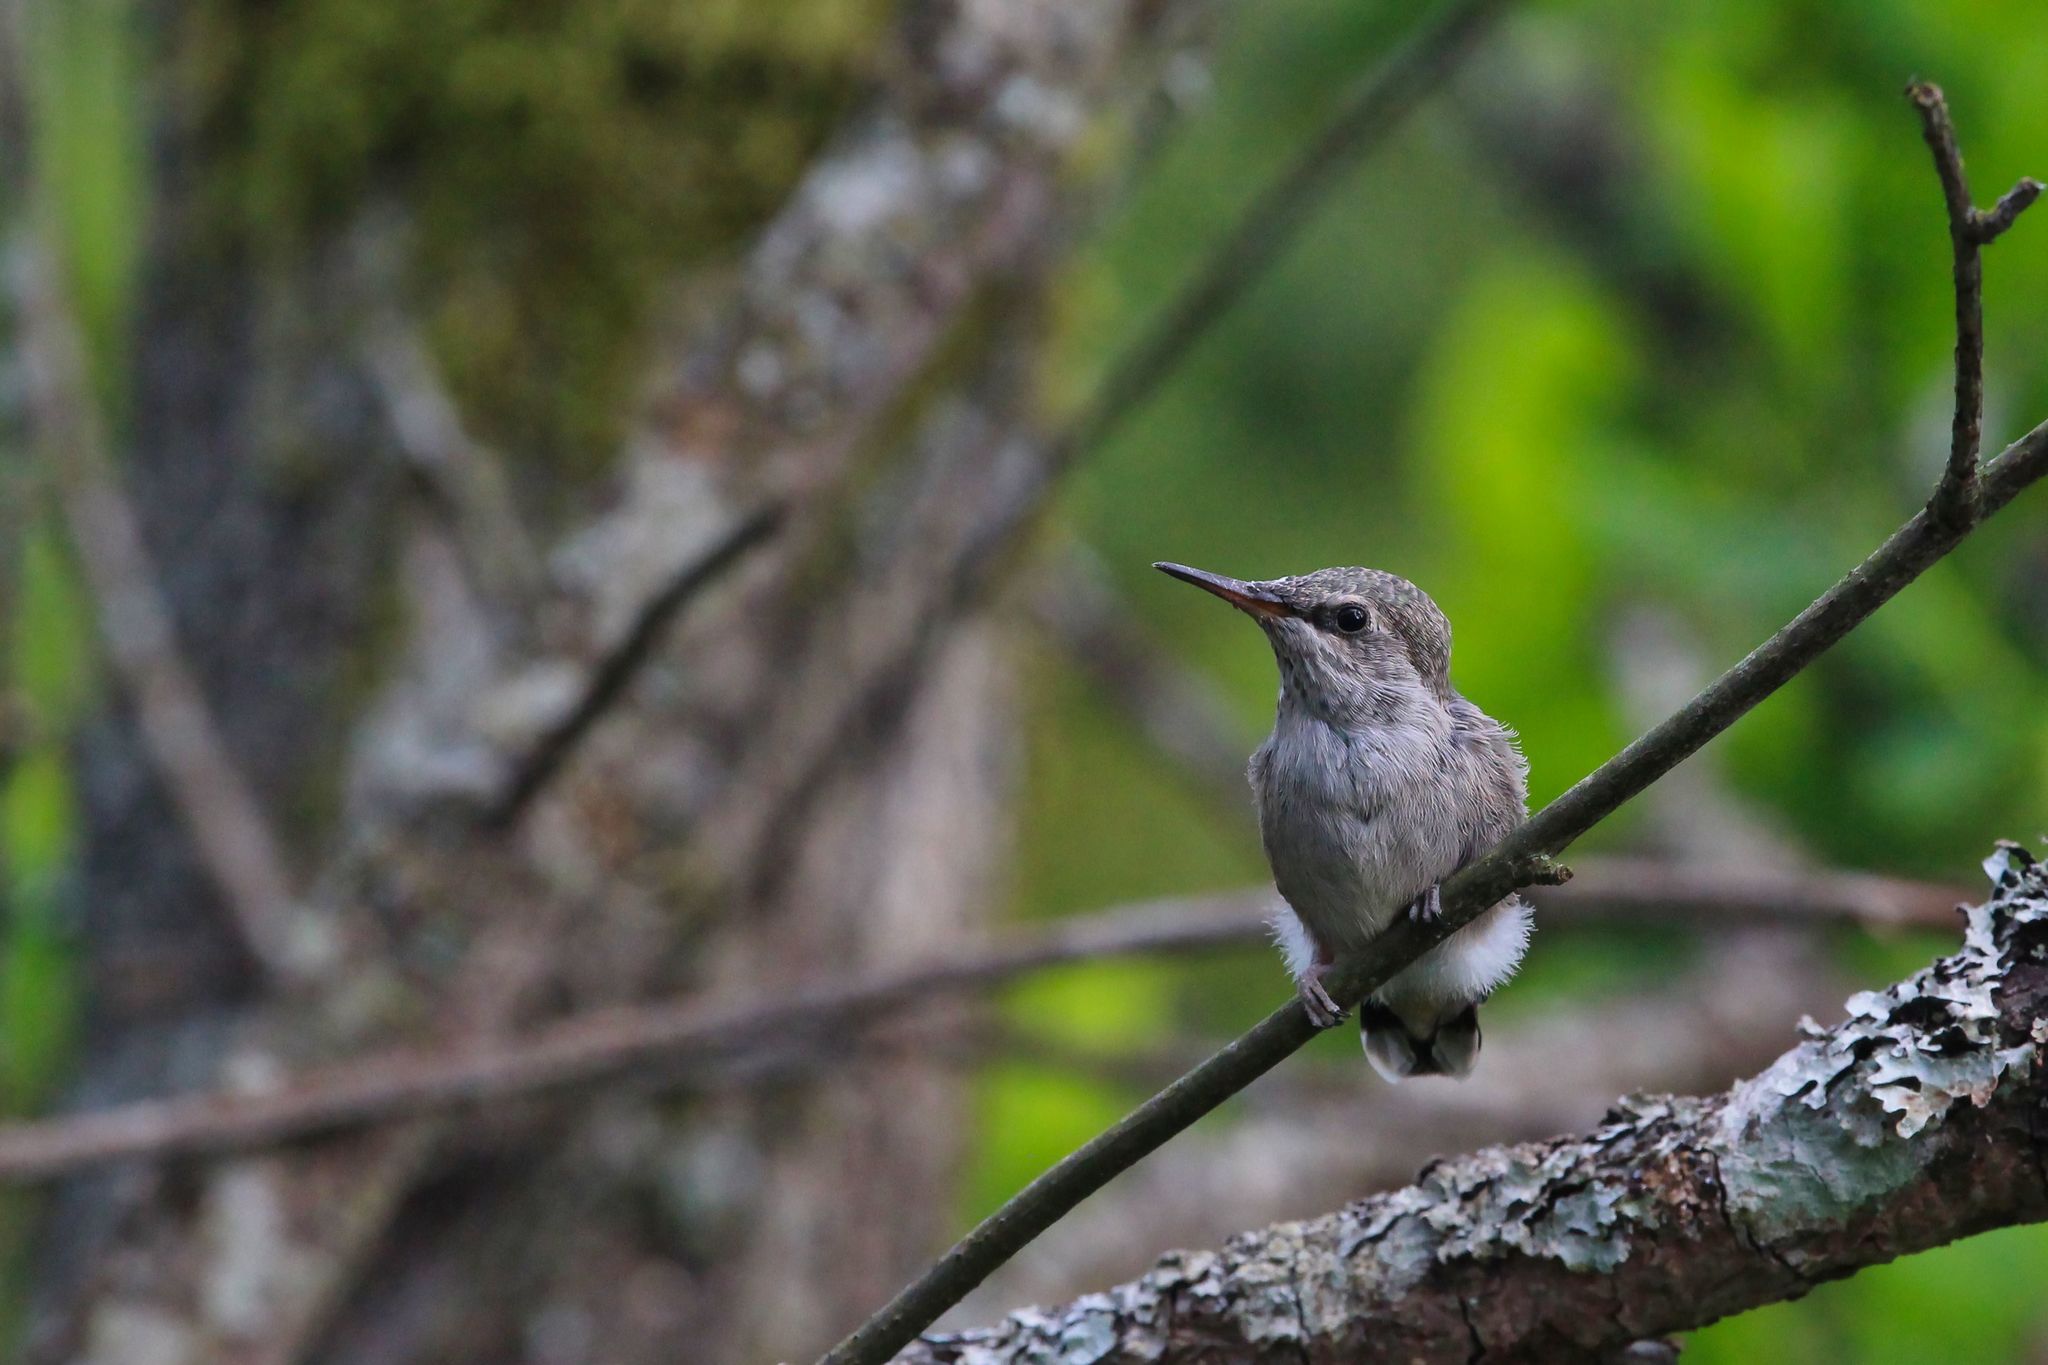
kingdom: Animalia
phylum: Chordata
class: Aves
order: Apodiformes
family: Trochilidae
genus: Calypte
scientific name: Calypte anna
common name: Anna's hummingbird
